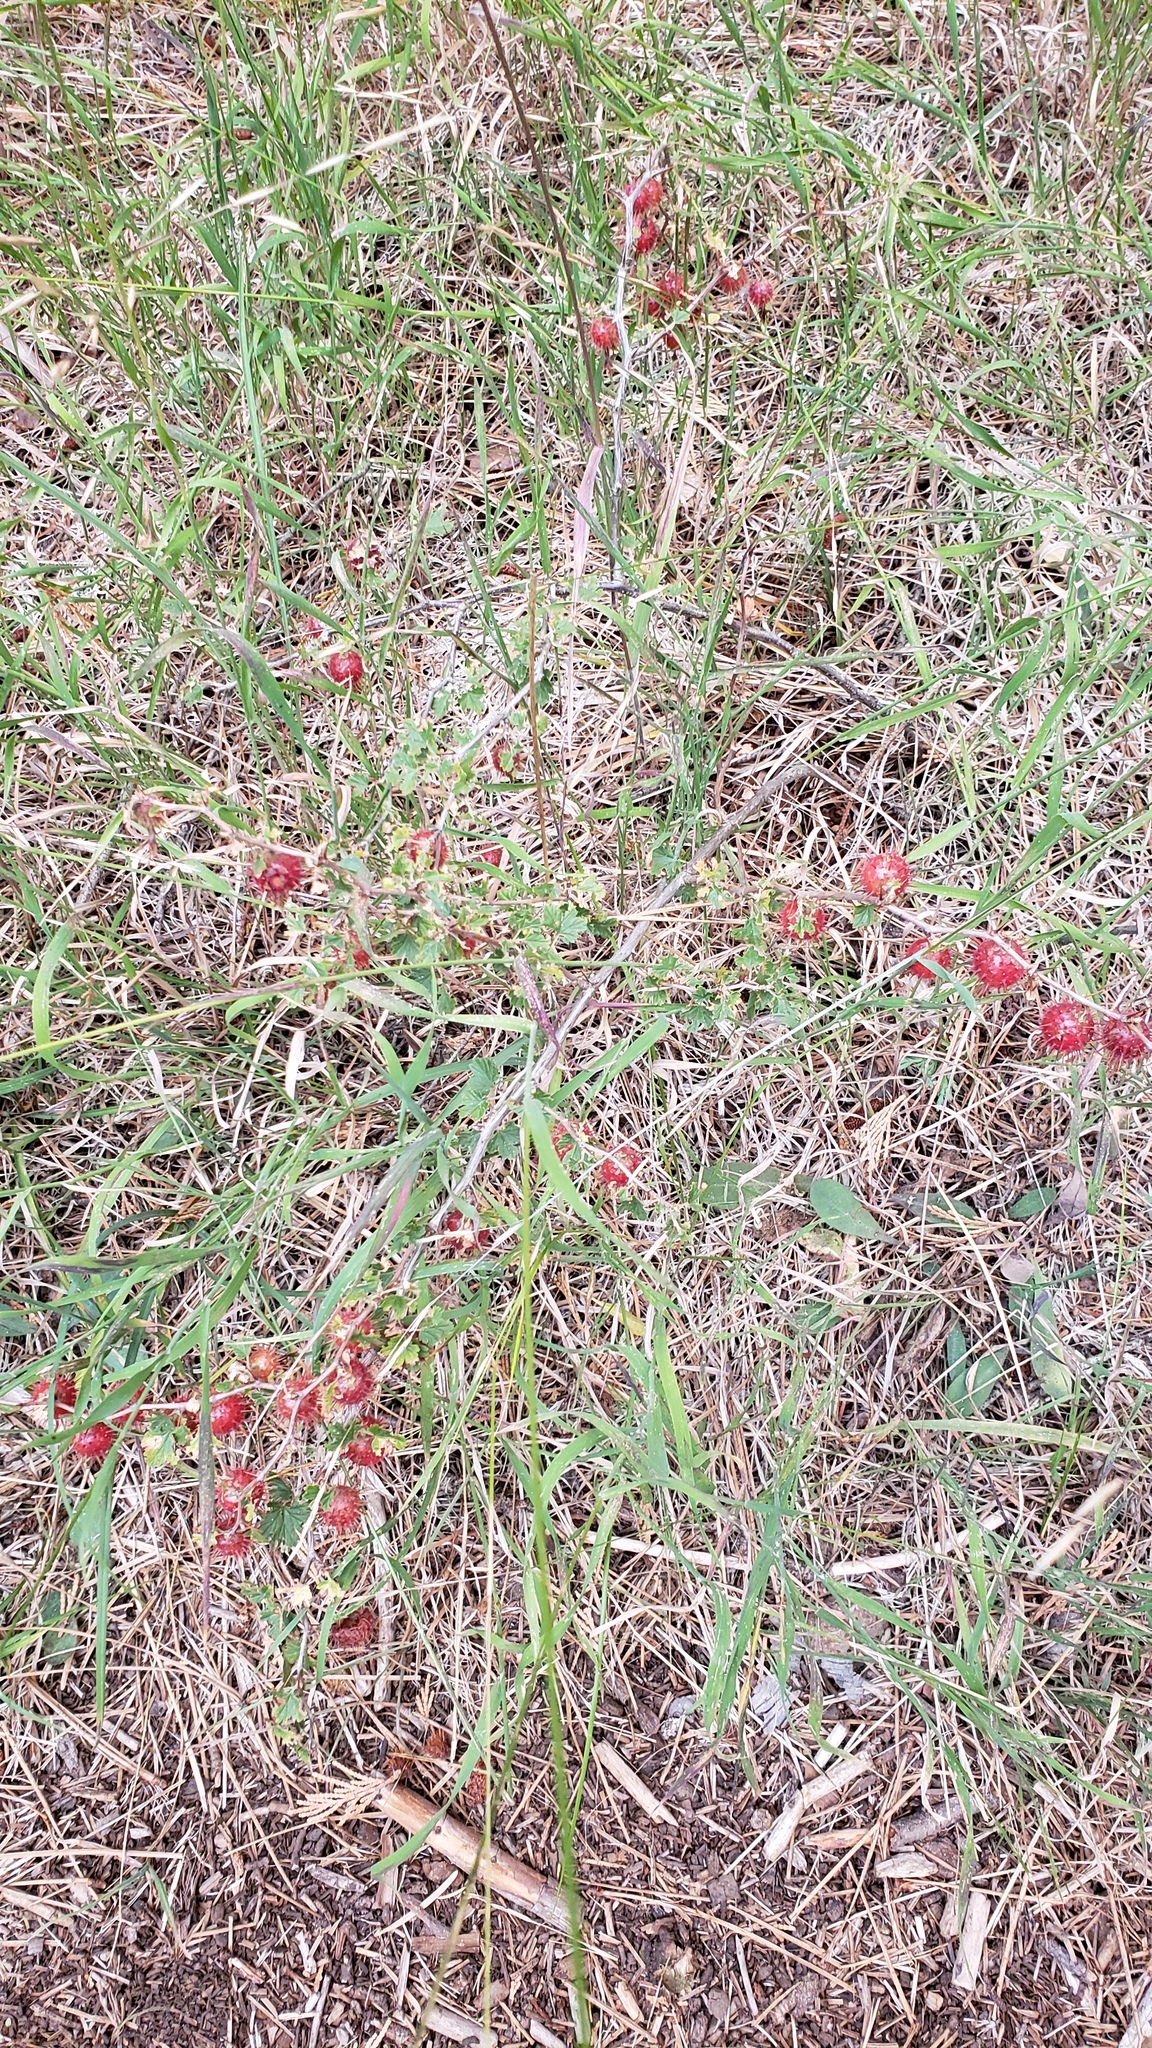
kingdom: Plantae
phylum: Tracheophyta
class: Magnoliopsida
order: Saxifragales
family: Grossulariaceae
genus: Ribes
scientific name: Ribes roezlii
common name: Sierra gooseberry
